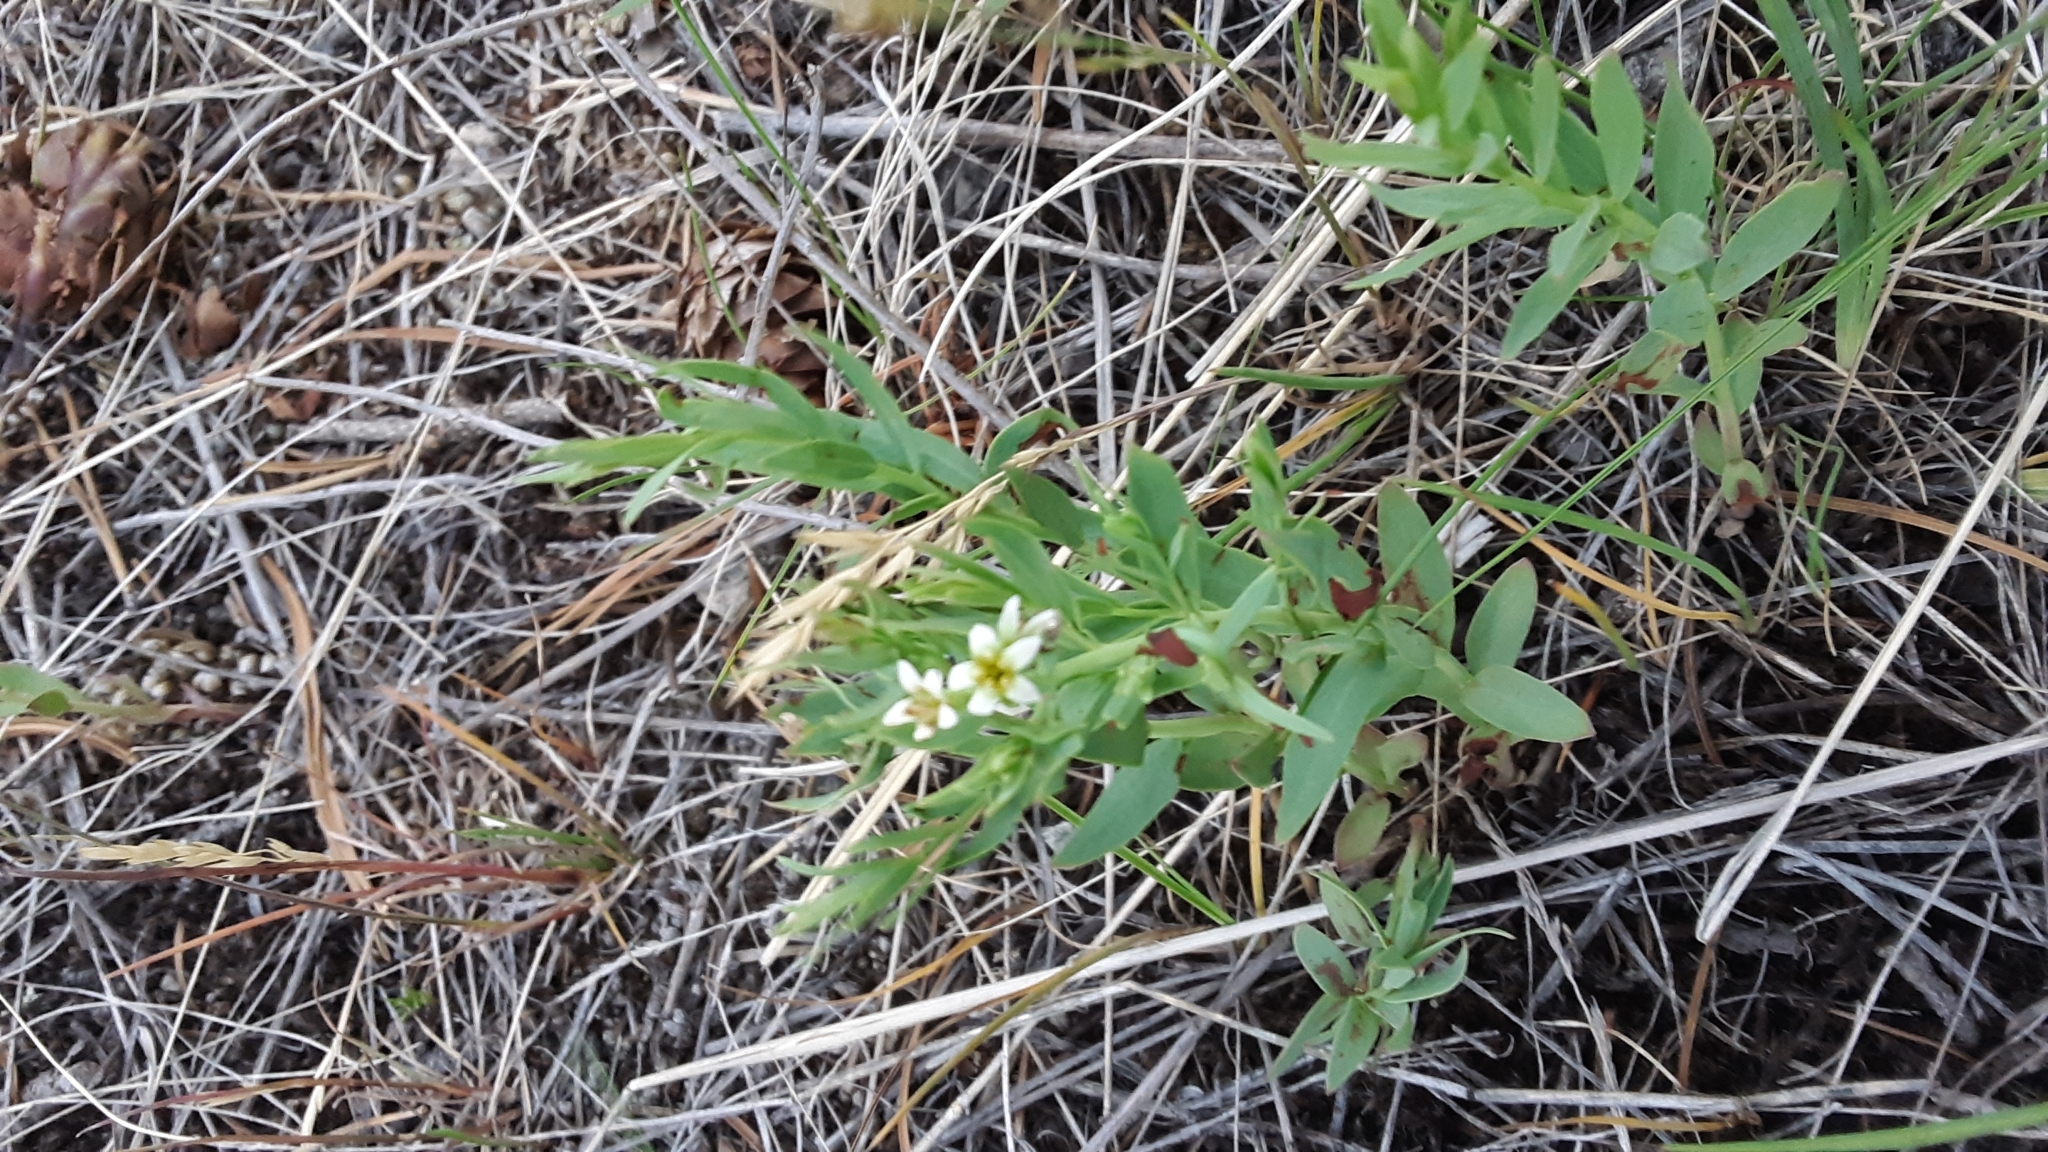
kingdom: Plantae
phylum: Tracheophyta
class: Magnoliopsida
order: Santalales
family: Comandraceae
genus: Comandra
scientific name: Comandra umbellata
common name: Bastard toadflax
